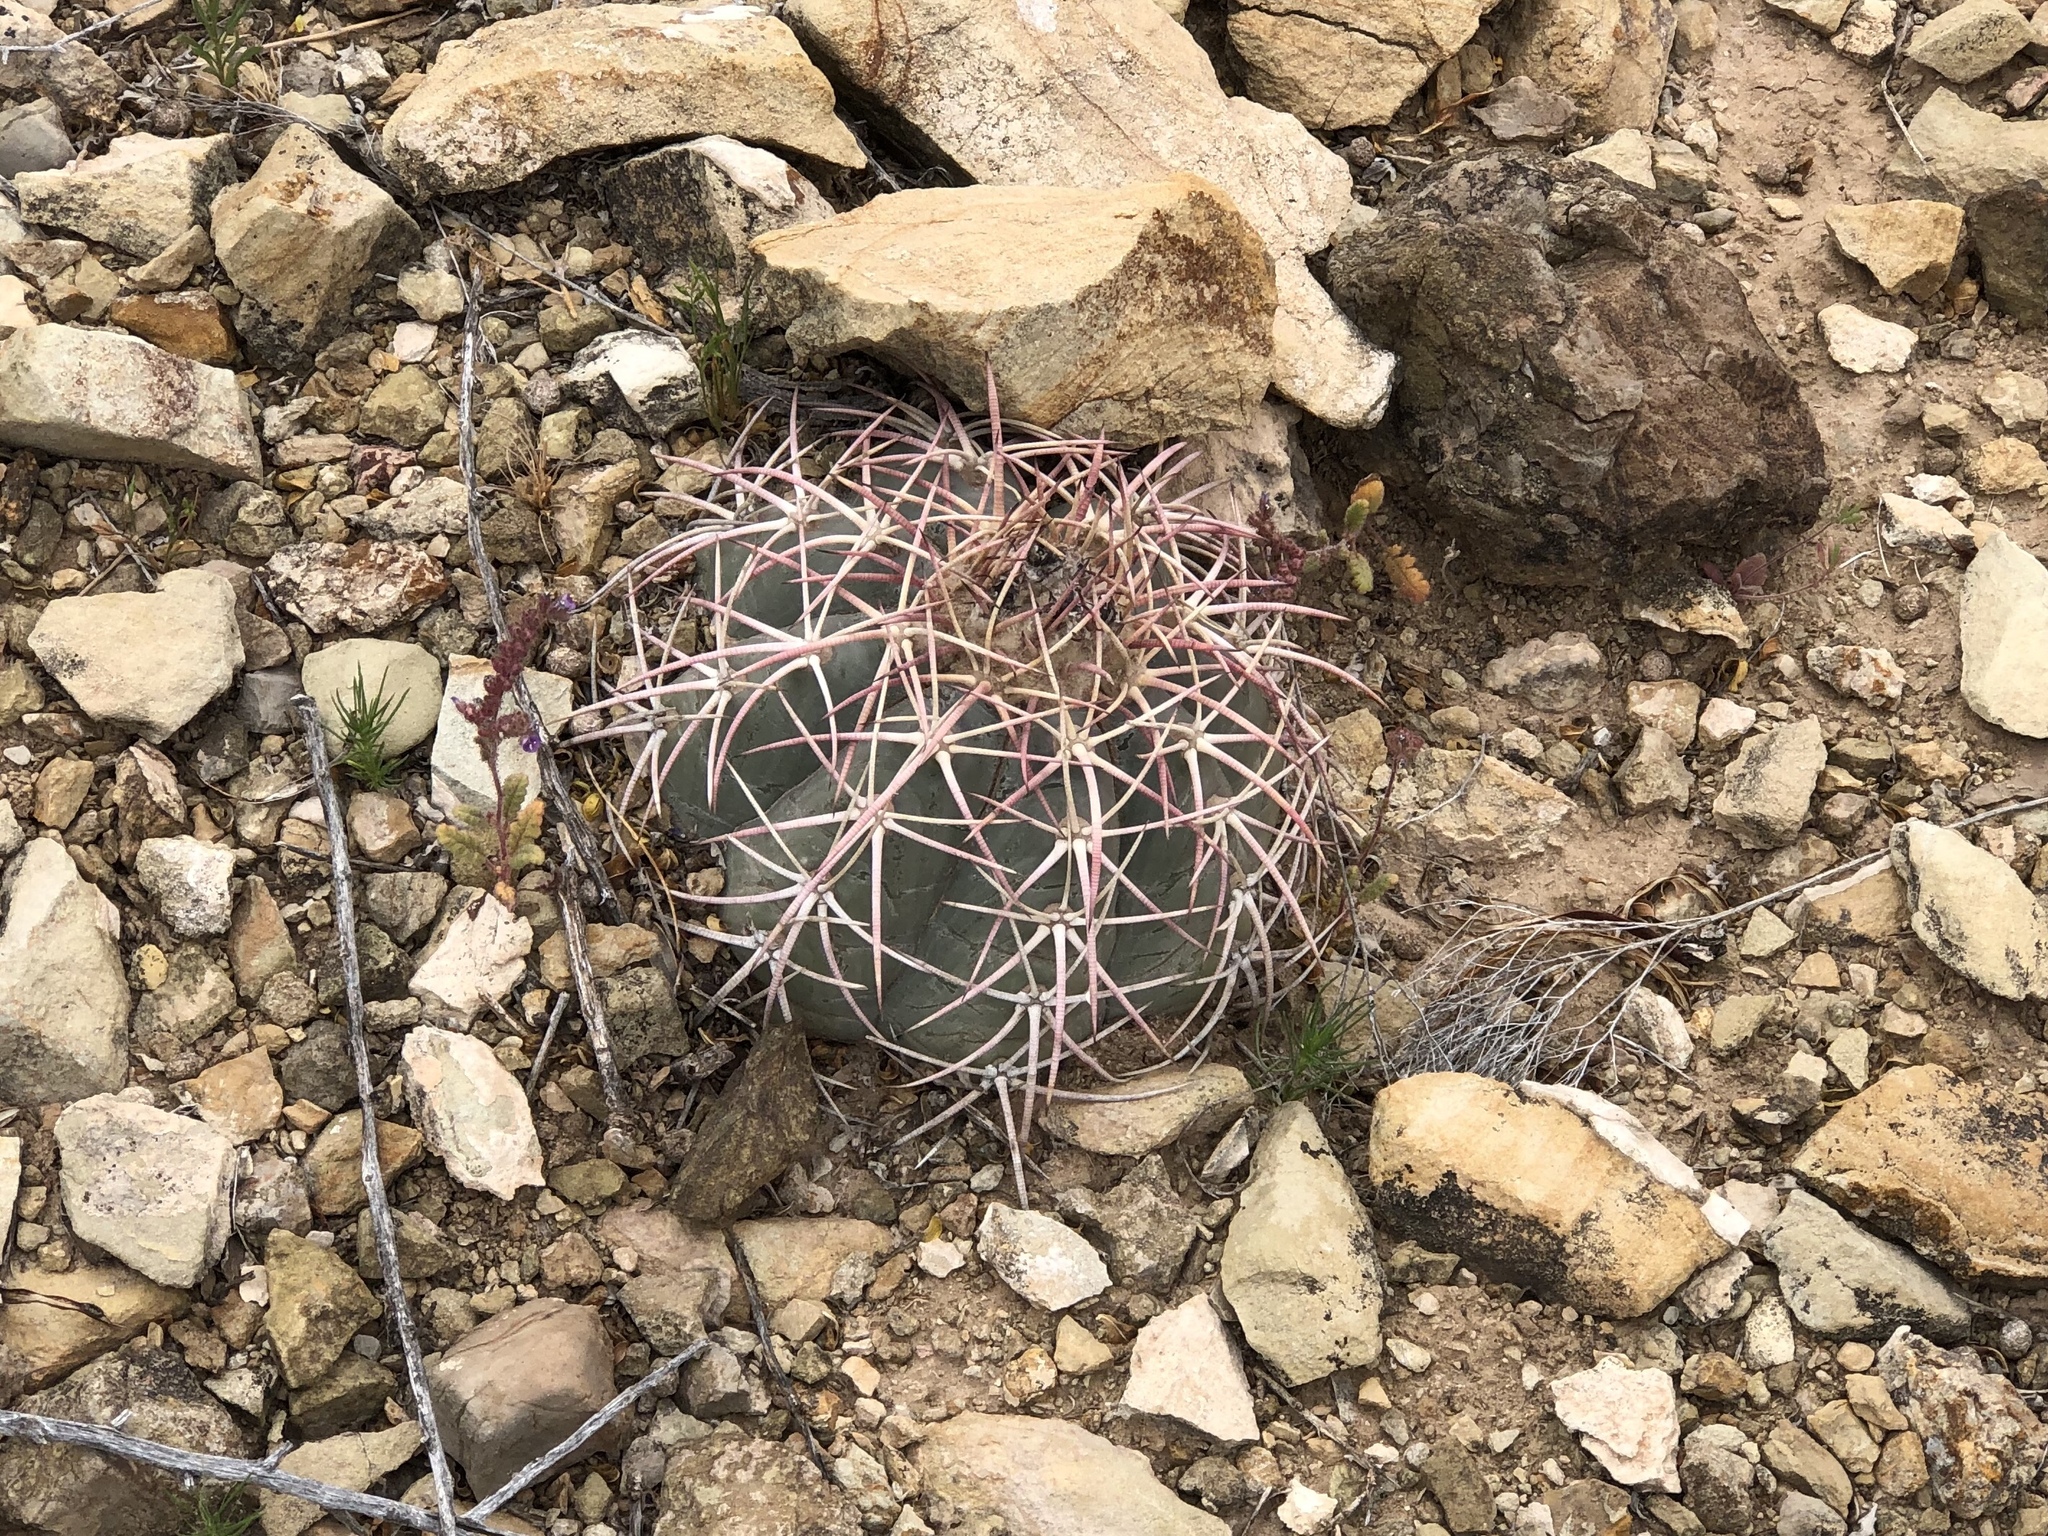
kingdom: Plantae
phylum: Tracheophyta
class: Magnoliopsida
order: Caryophyllales
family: Cactaceae
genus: Echinocactus
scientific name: Echinocactus horizonthalonius
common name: Devilshead
